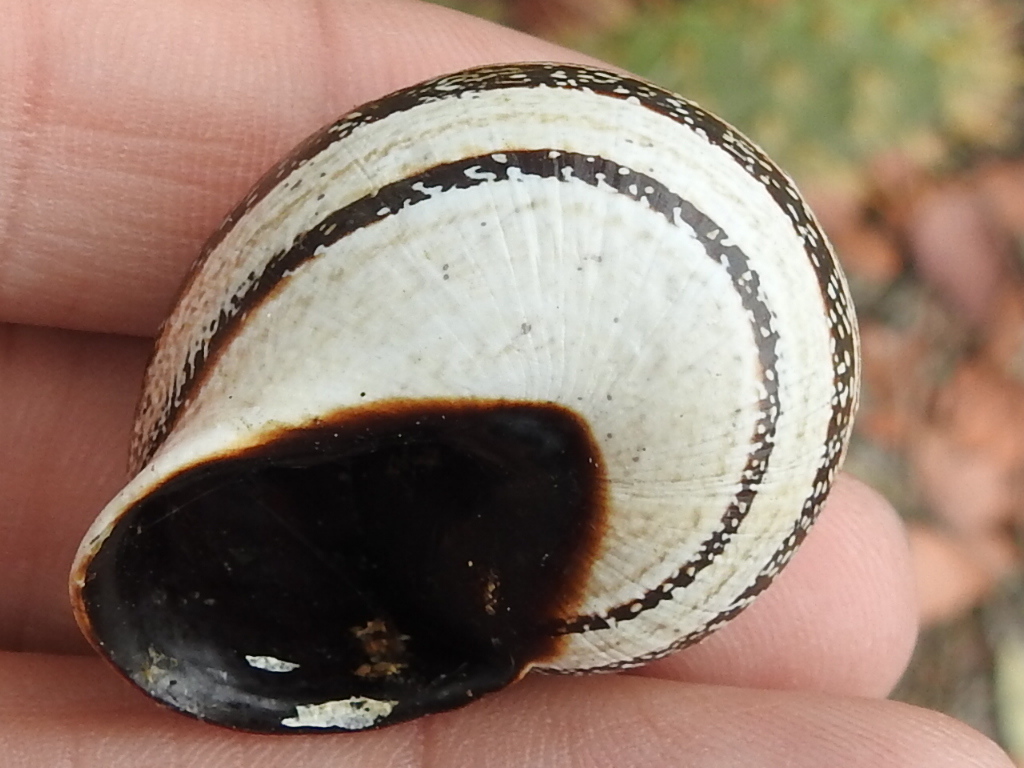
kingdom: Animalia
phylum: Mollusca
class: Gastropoda
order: Stylommatophora
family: Helicidae
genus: Otala
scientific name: Otala lactea
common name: Milk snail
